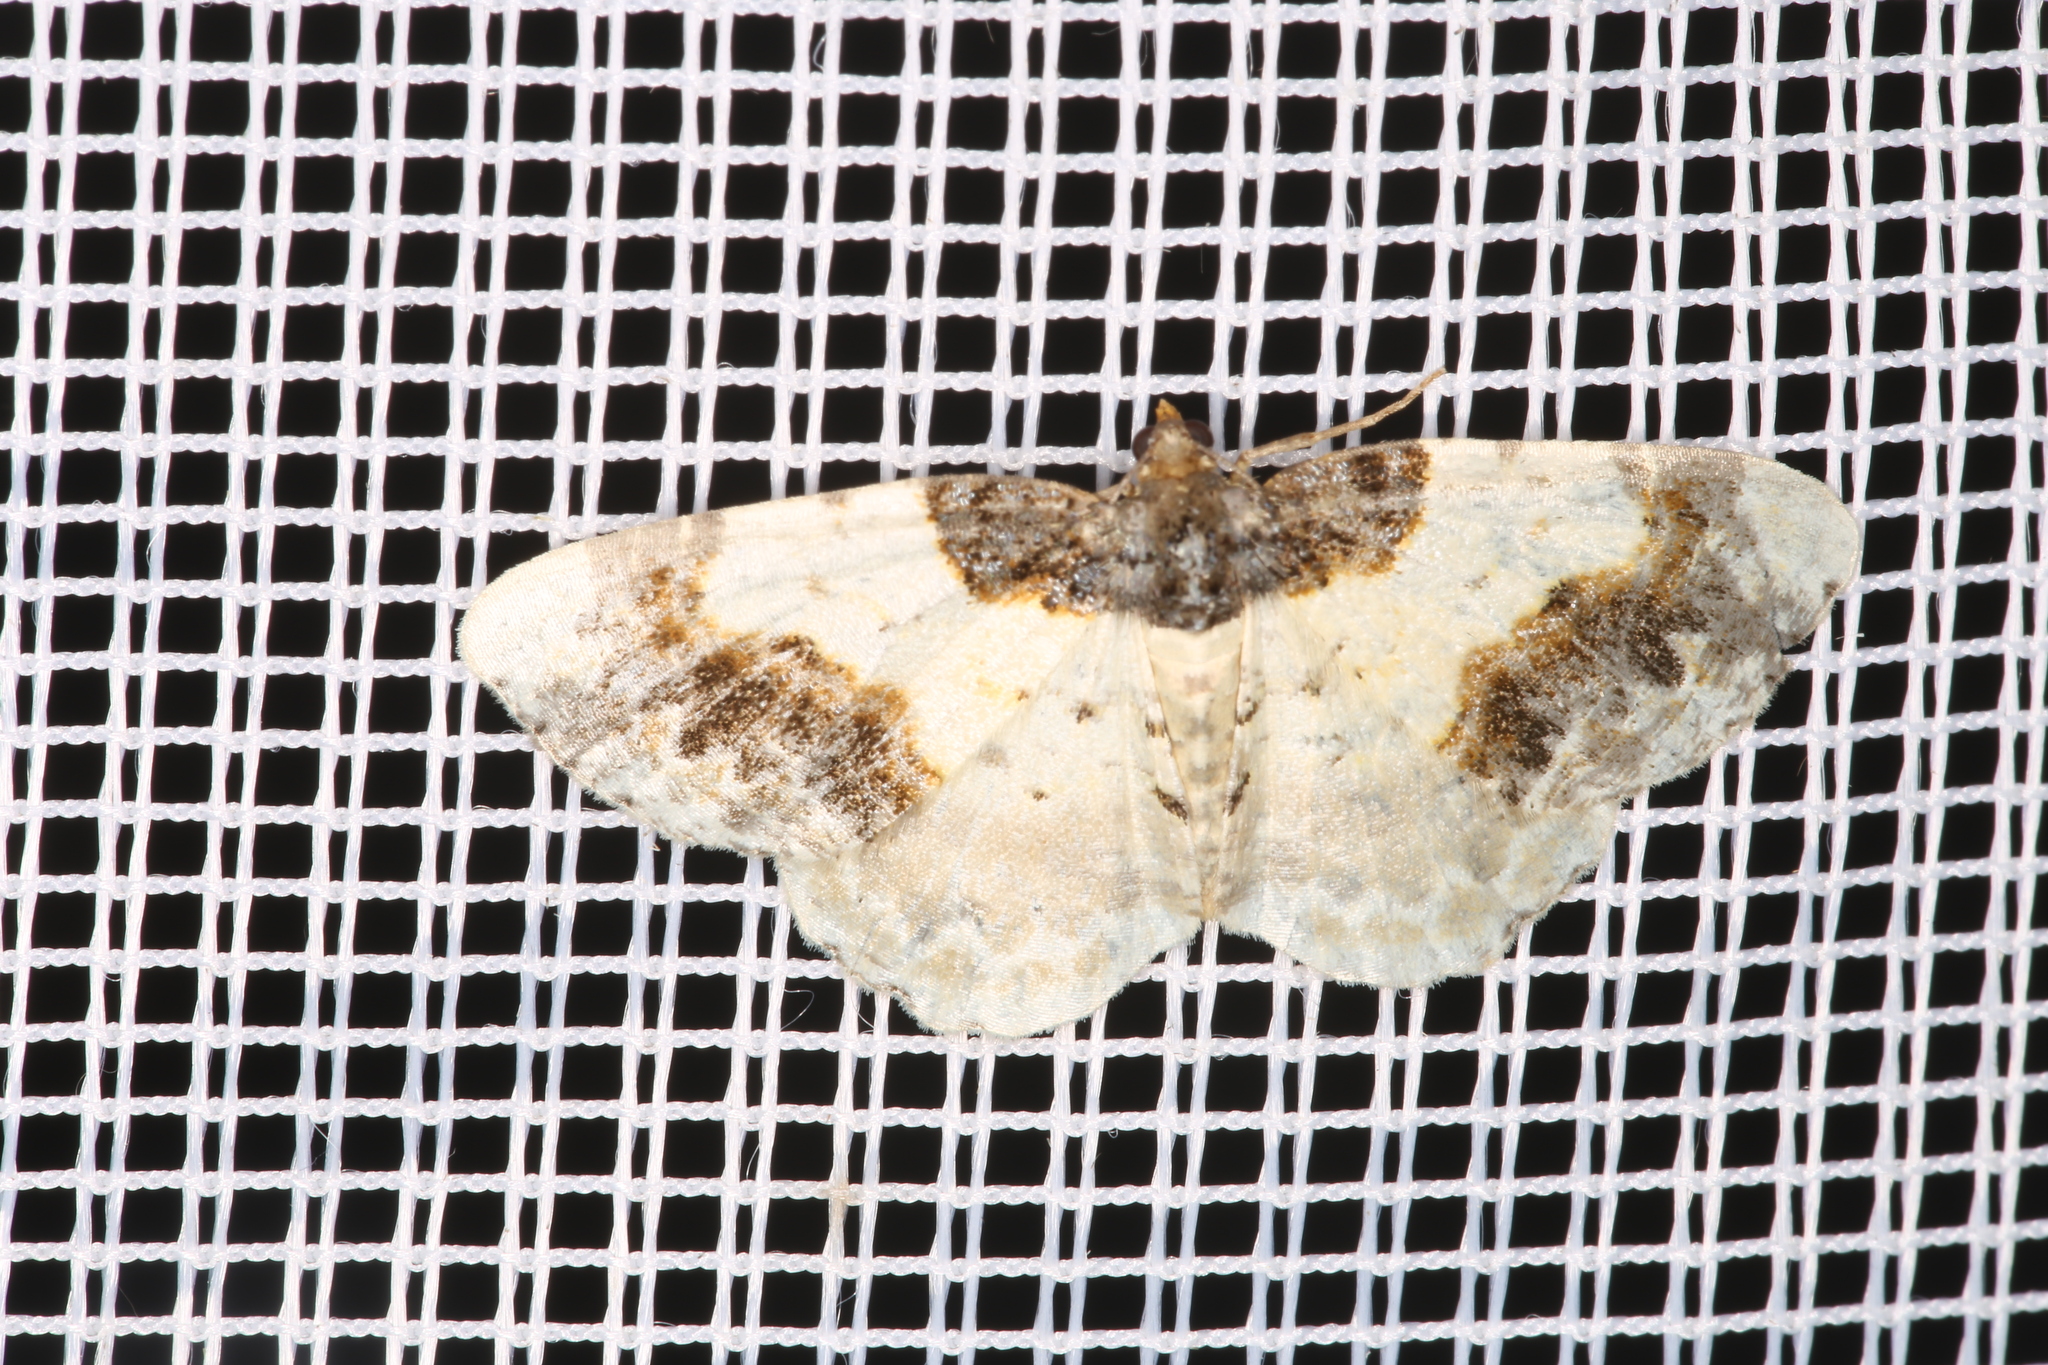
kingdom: Animalia
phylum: Arthropoda
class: Insecta
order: Lepidoptera
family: Geometridae
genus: Ligdia
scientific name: Ligdia adustata
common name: Scorched carpet
